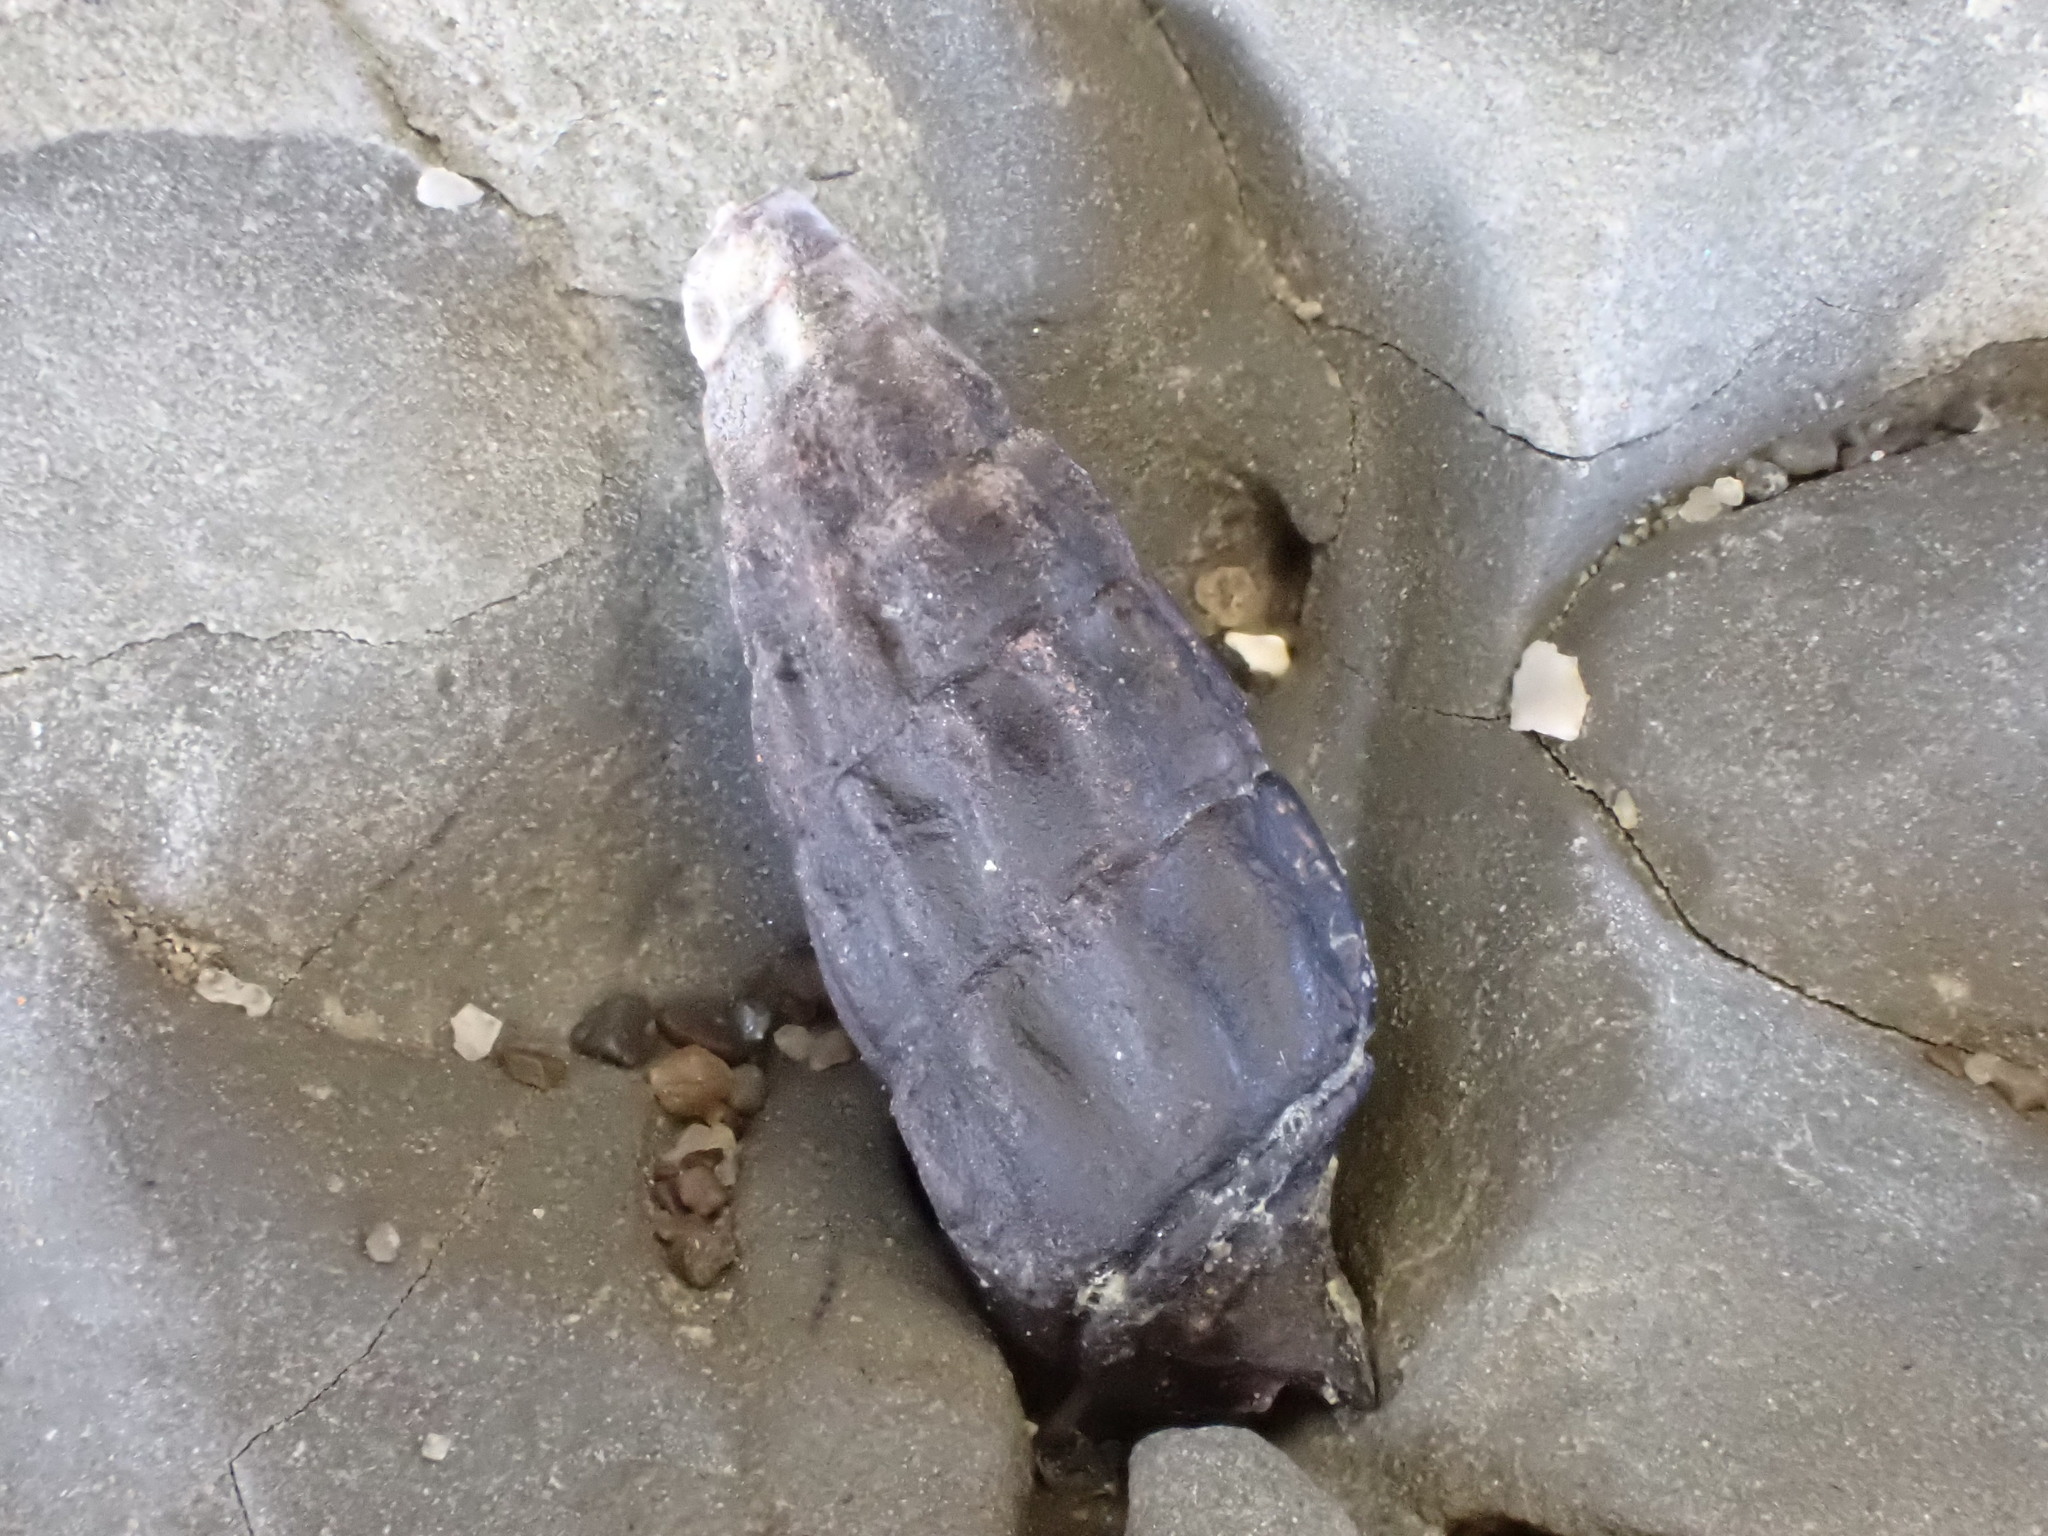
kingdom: Animalia
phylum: Mollusca
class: Gastropoda
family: Batillariidae
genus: Zeacumantus
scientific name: Zeacumantus subcarinatus
